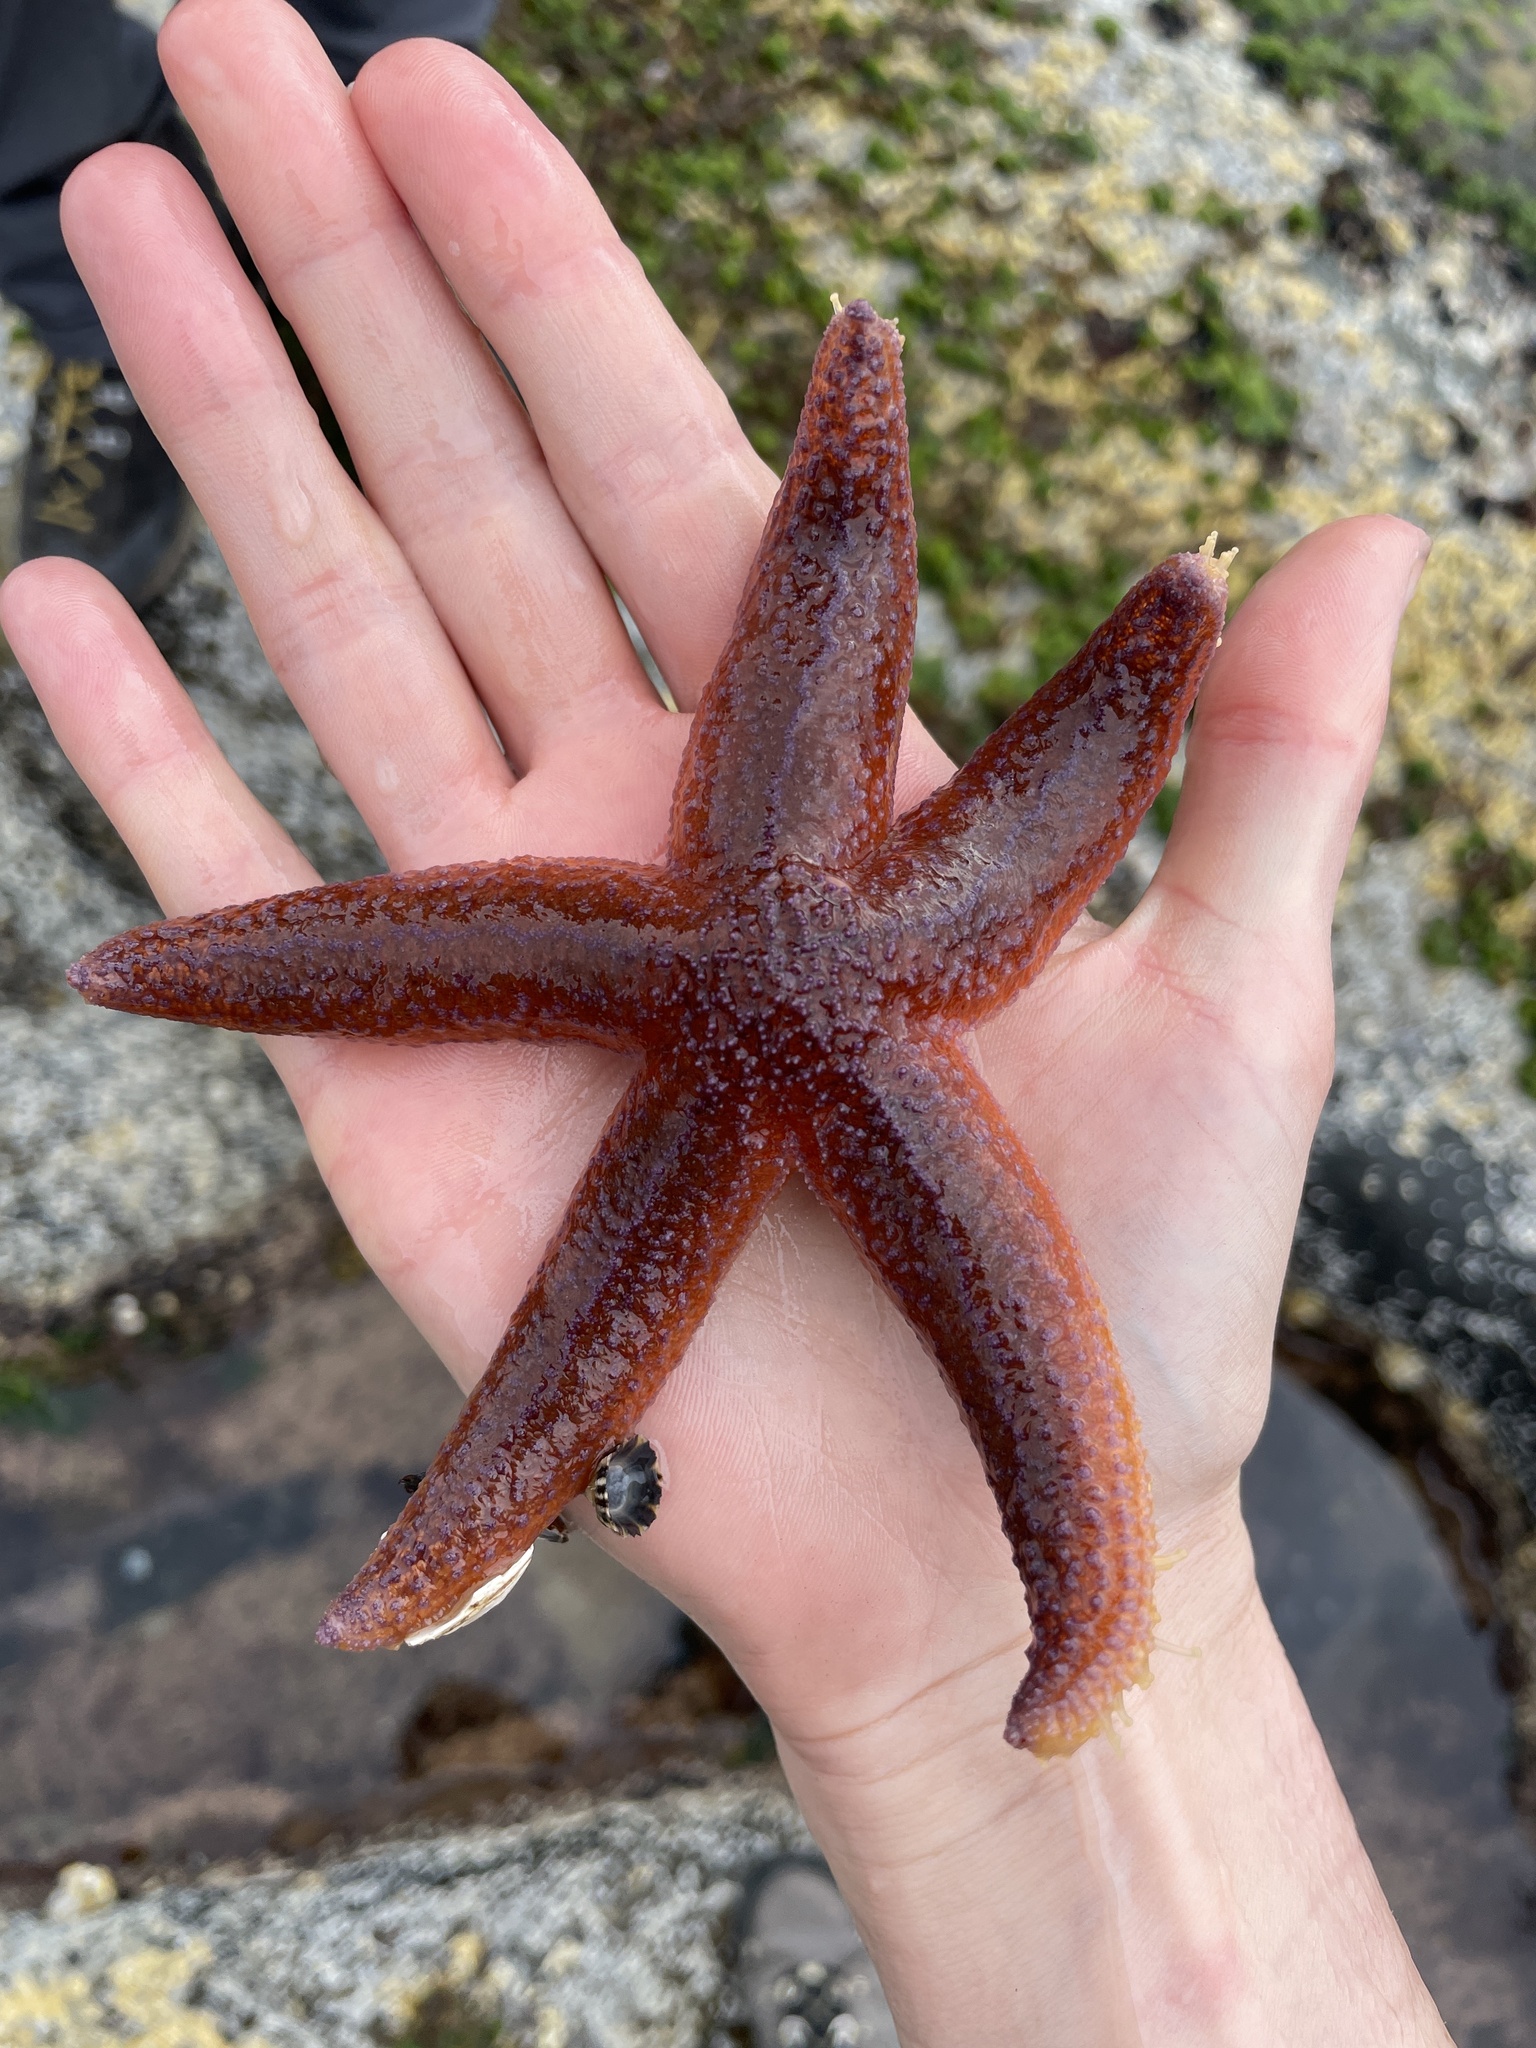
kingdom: Animalia
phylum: Echinodermata
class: Asteroidea
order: Forcipulatida
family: Asteriidae
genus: Asterias
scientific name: Asterias rubens
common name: Common starfish
